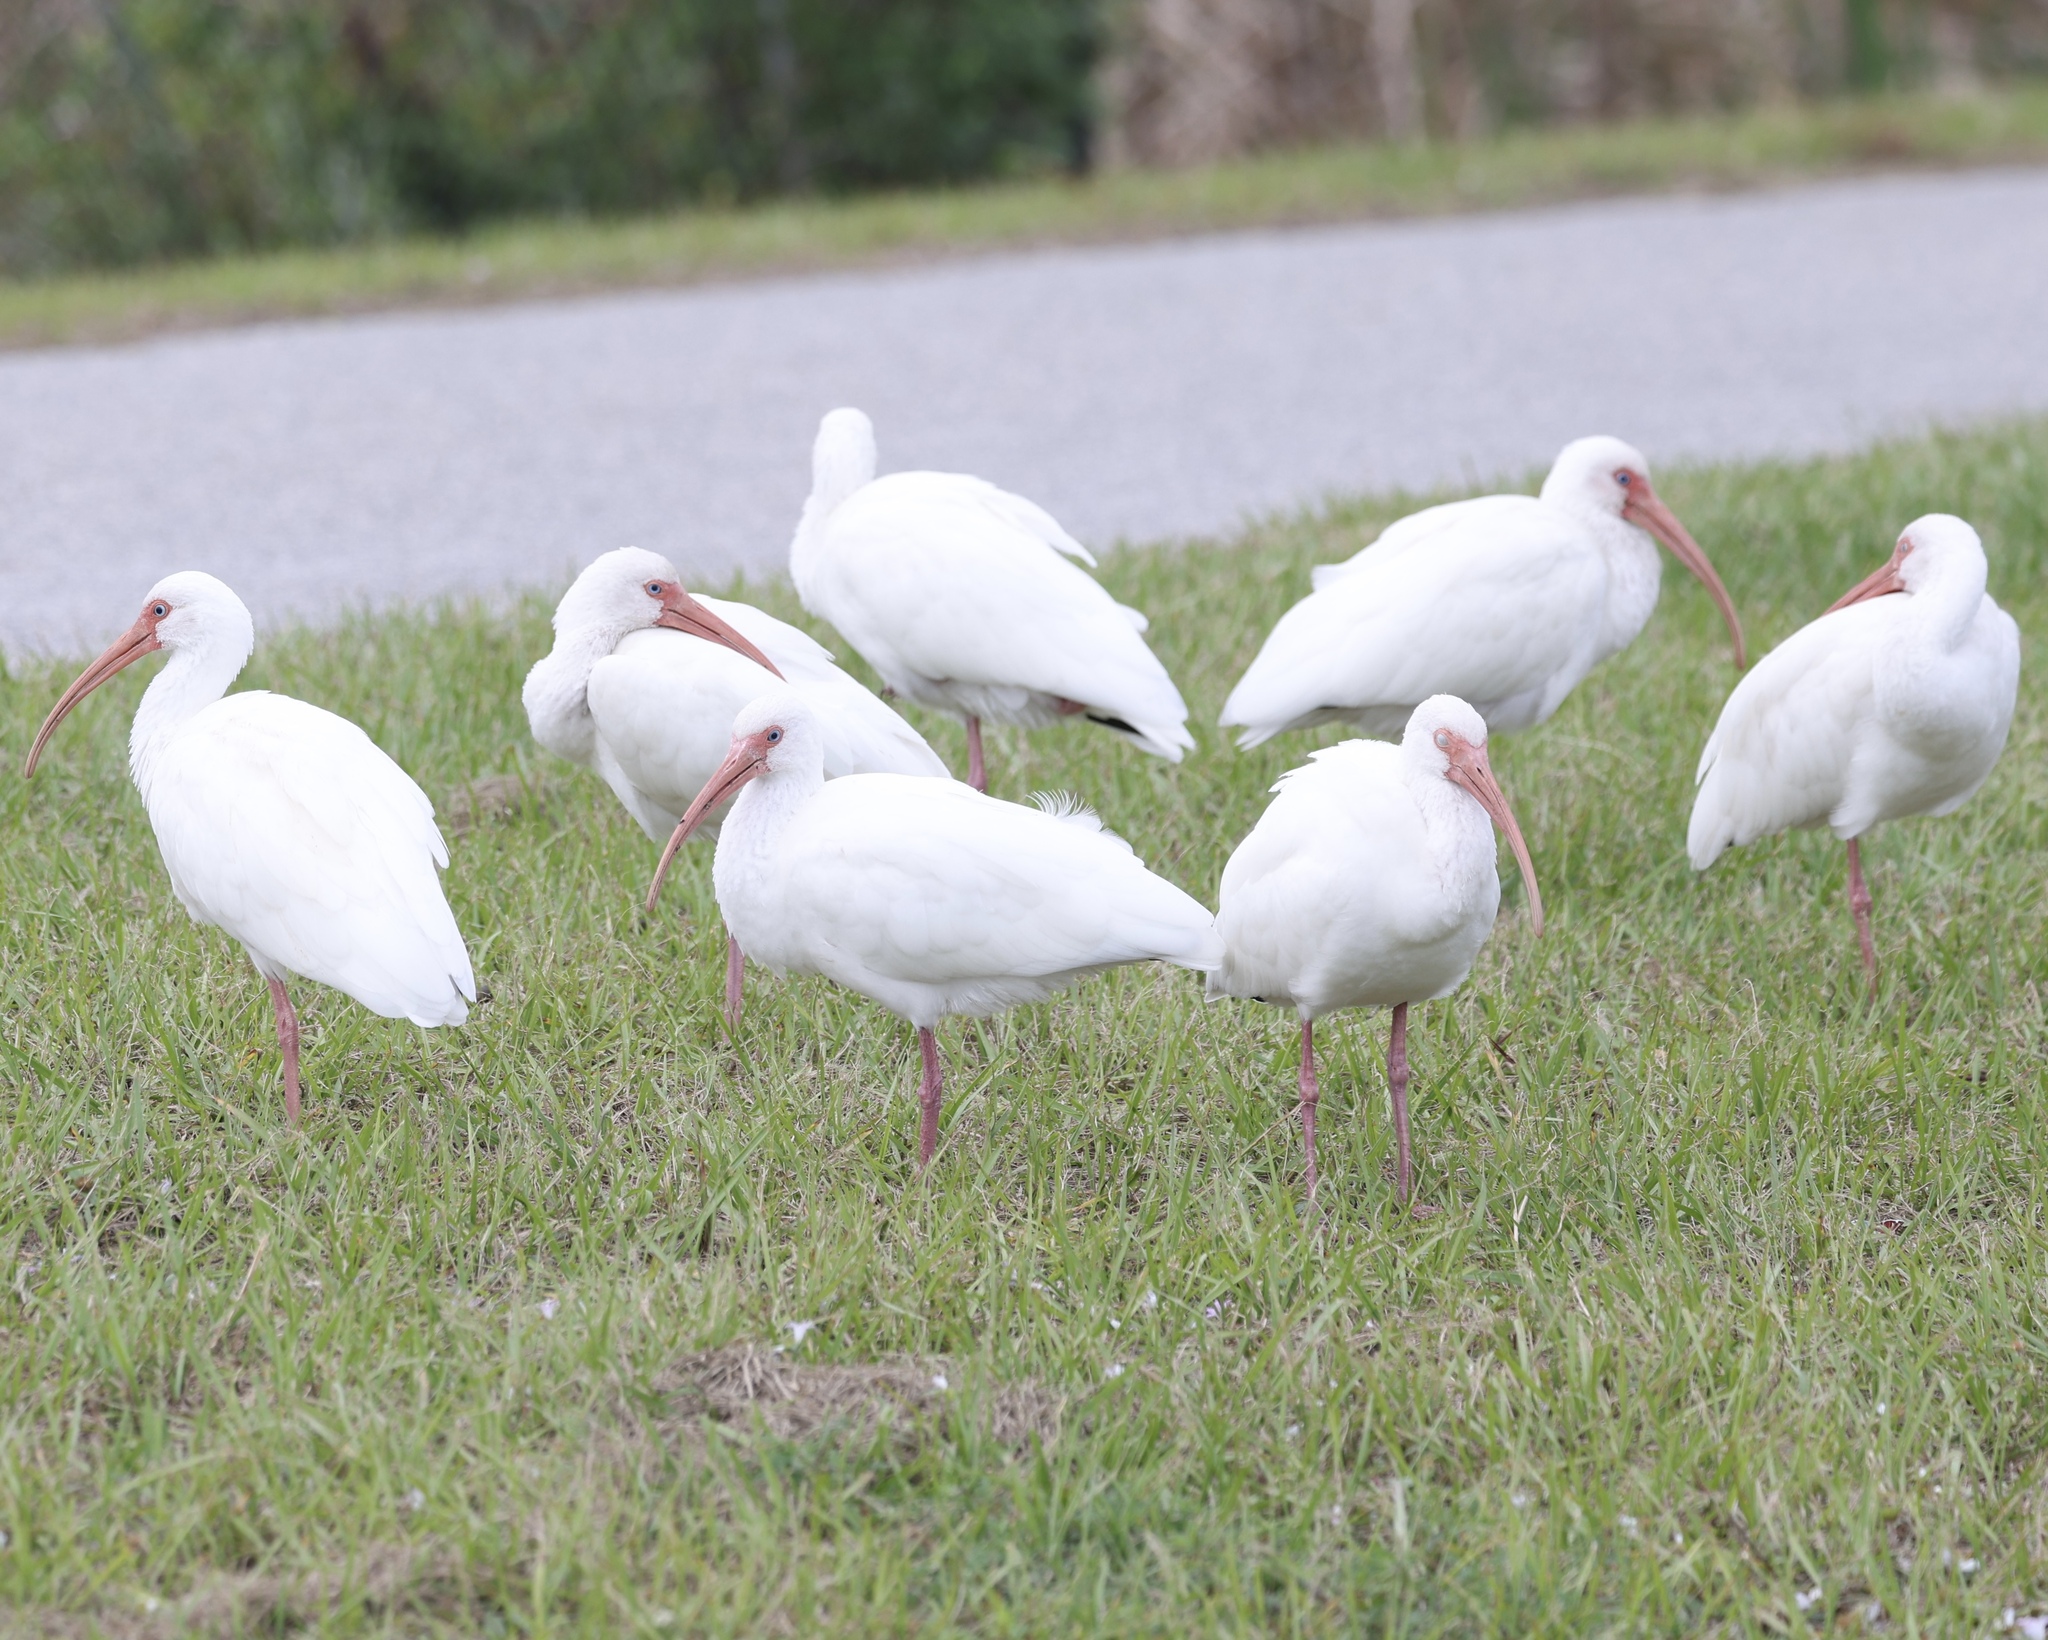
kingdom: Animalia
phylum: Chordata
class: Aves
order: Pelecaniformes
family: Threskiornithidae
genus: Eudocimus
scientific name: Eudocimus albus
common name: White ibis
